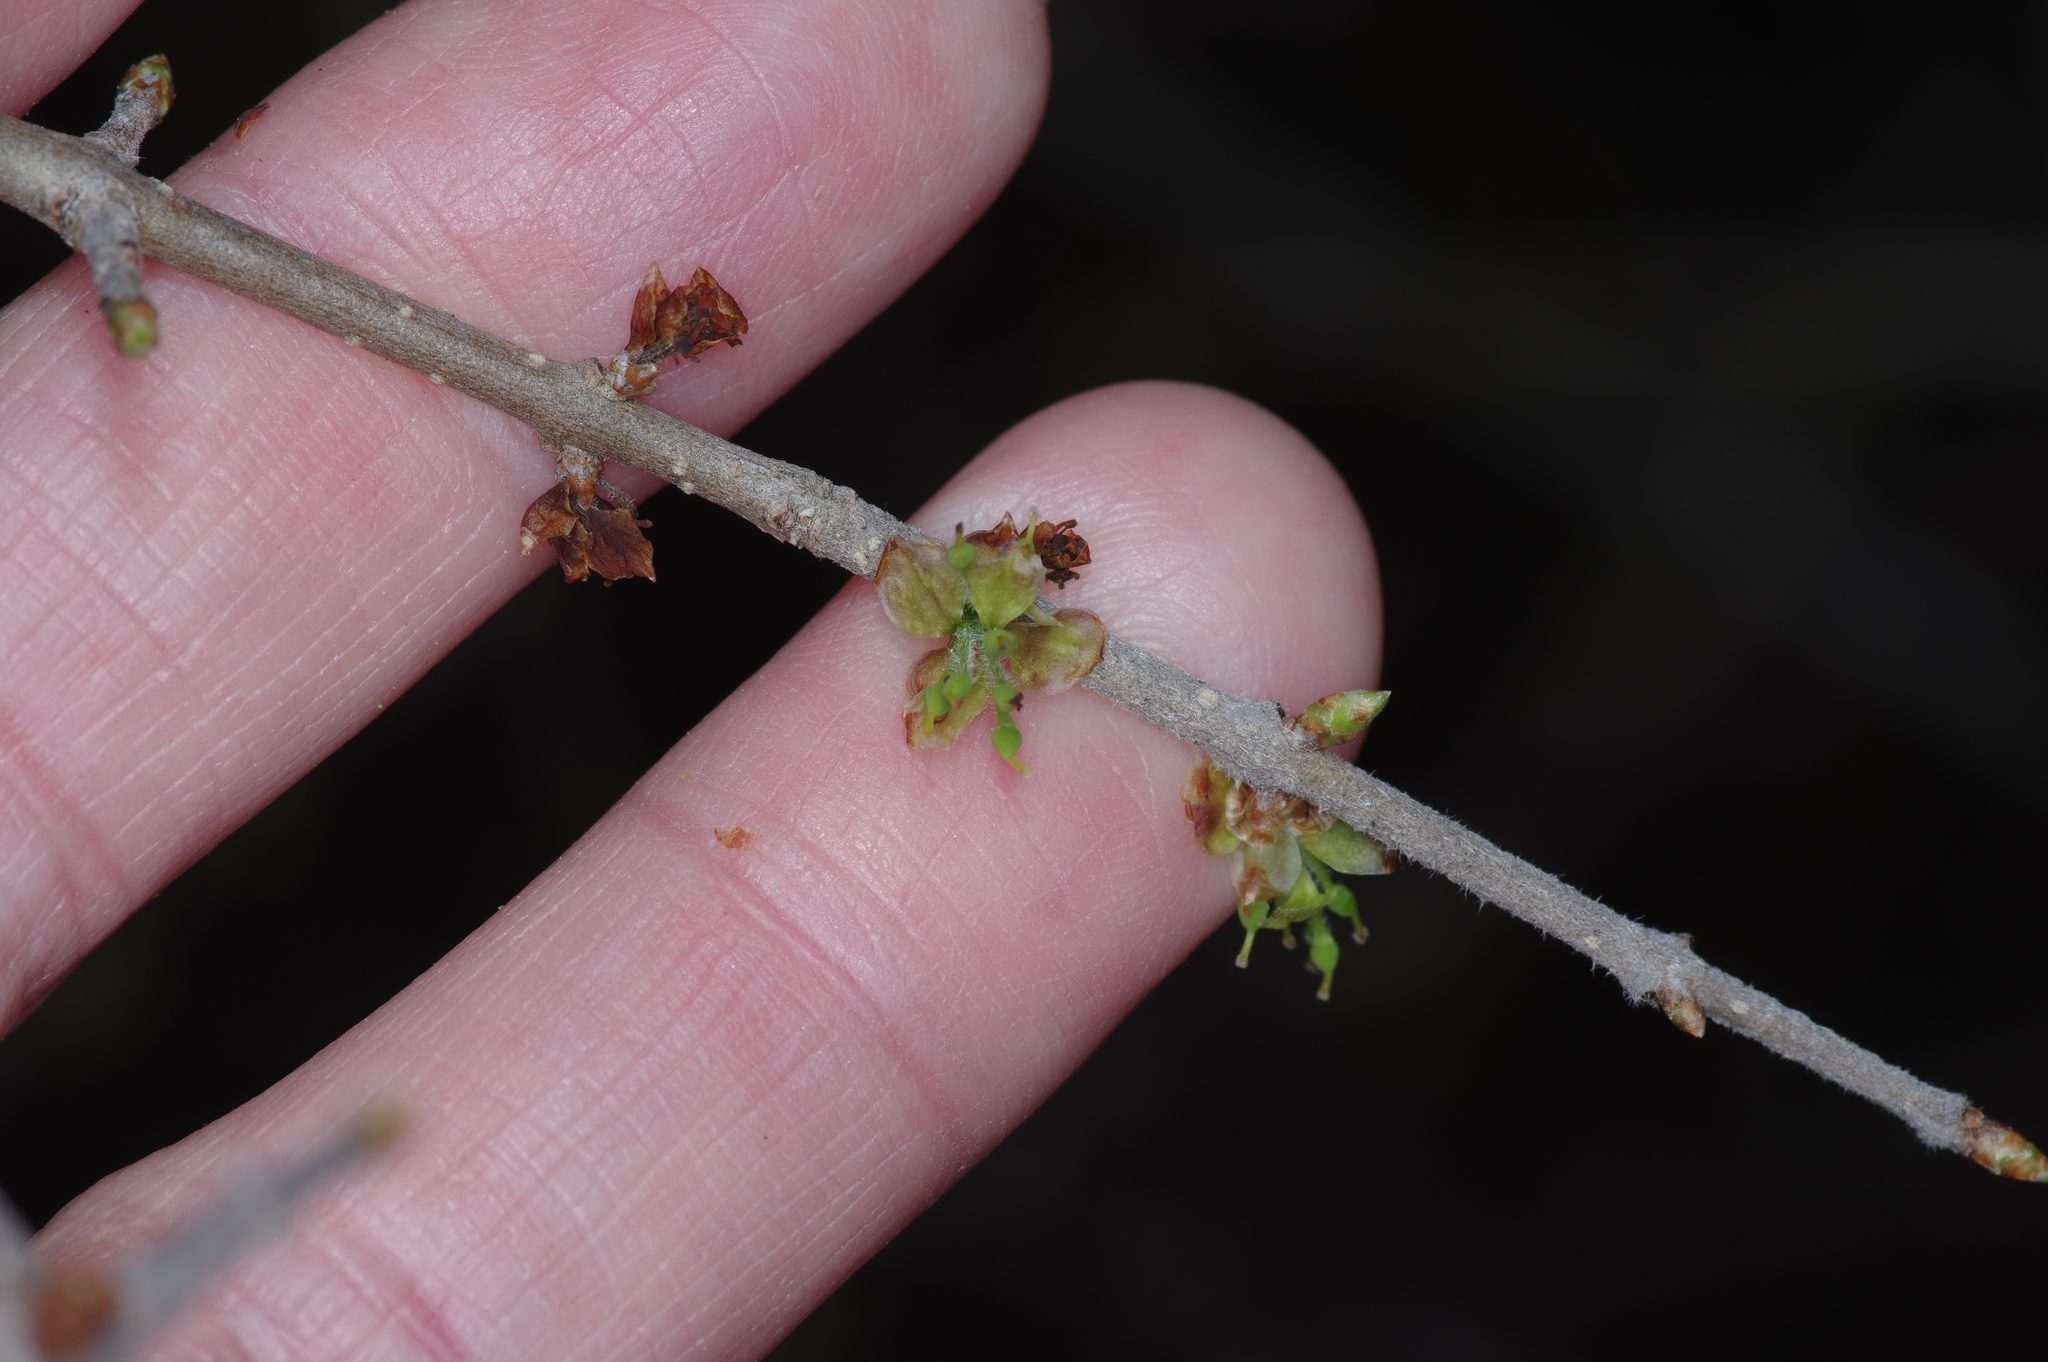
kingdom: Plantae
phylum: Tracheophyta
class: Magnoliopsida
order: Lamiales
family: Oleaceae
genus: Forestiera
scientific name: Forestiera pubescens
